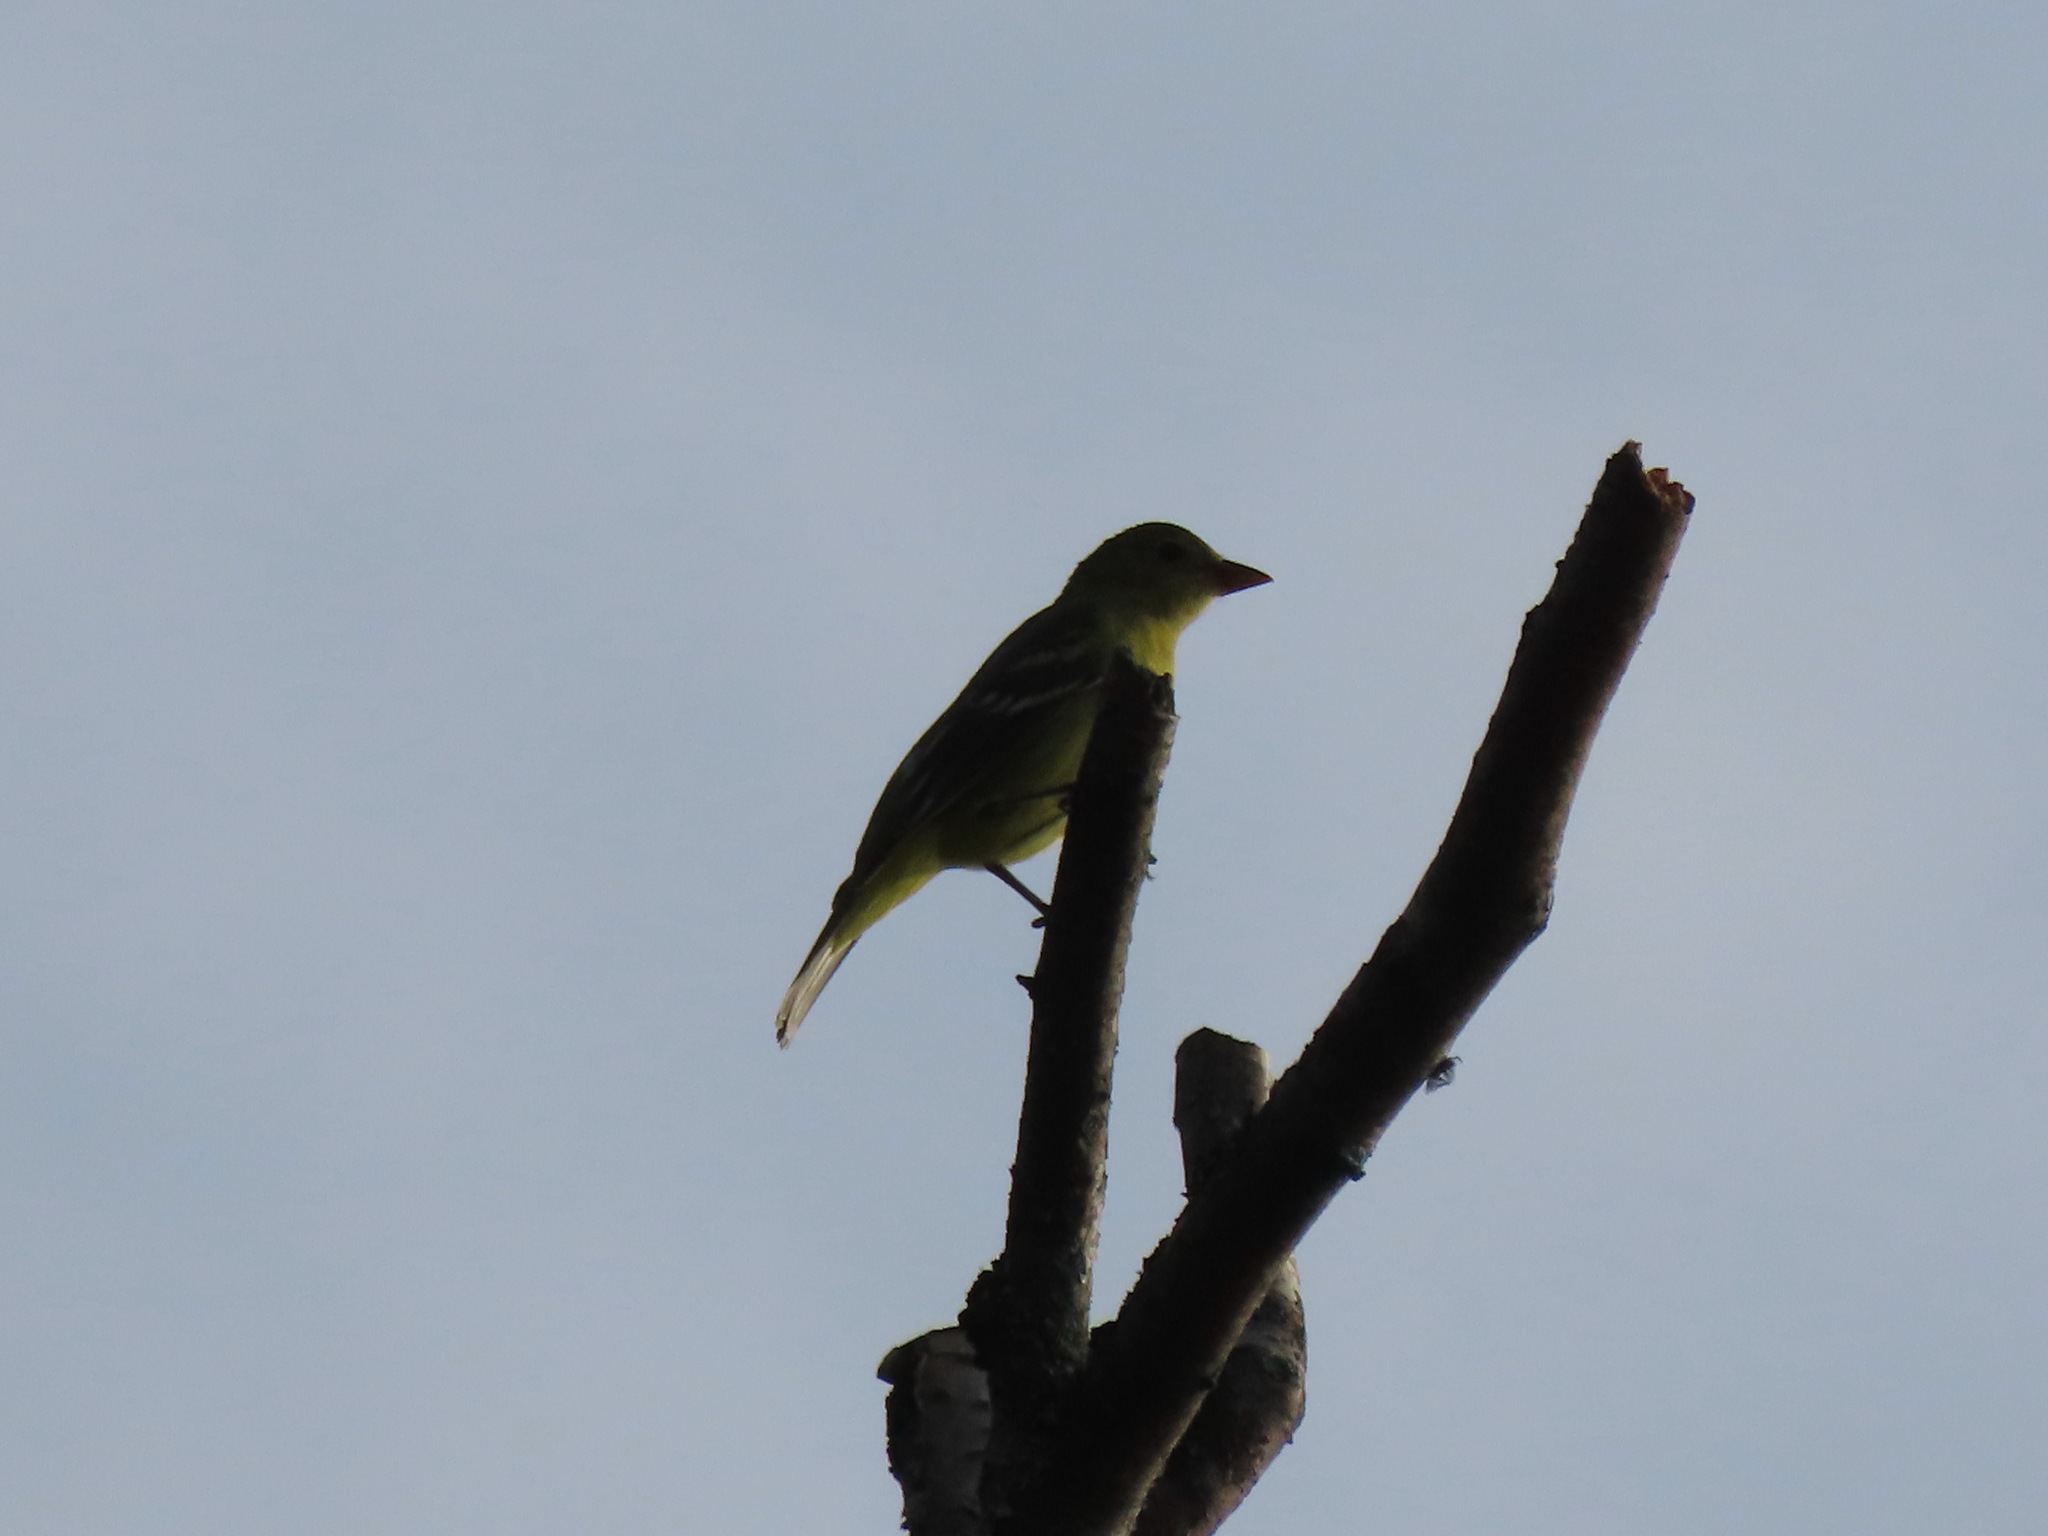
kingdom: Animalia
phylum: Chordata
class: Aves
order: Passeriformes
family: Cardinalidae
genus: Piranga
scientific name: Piranga ludoviciana
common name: Western tanager
